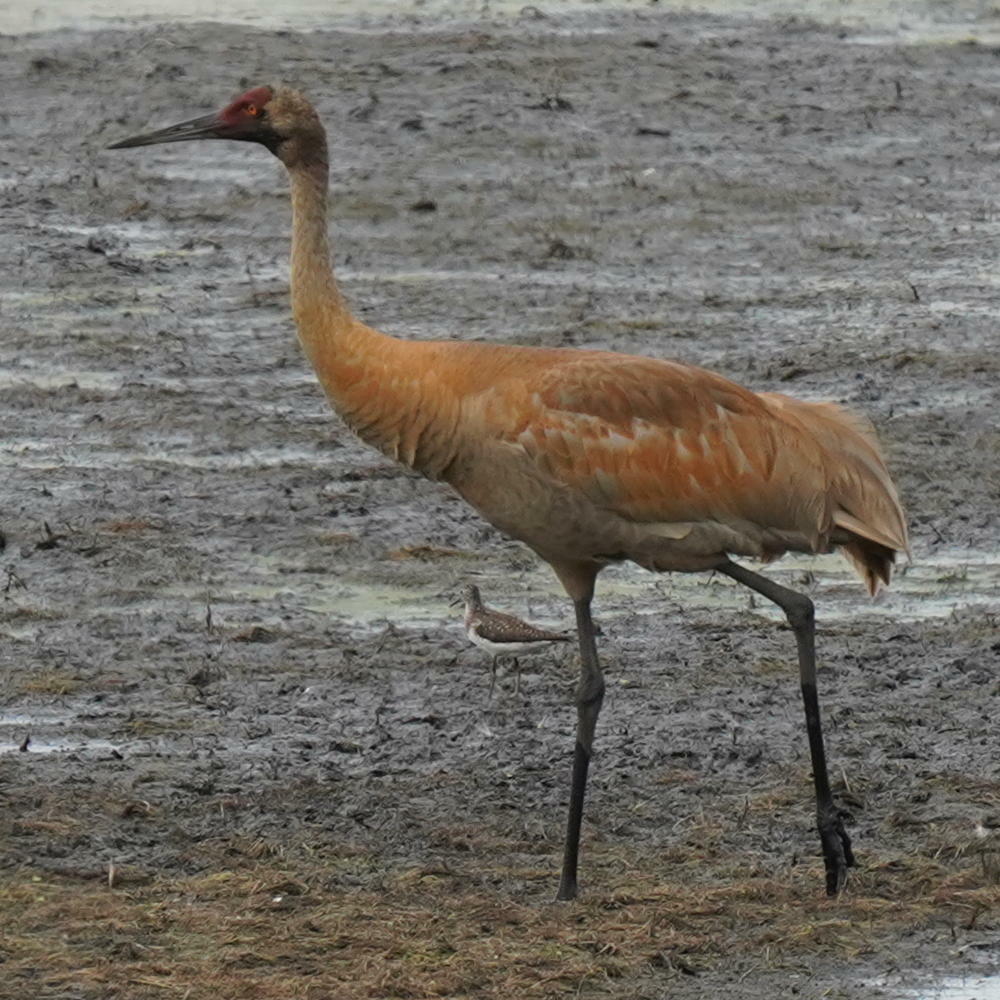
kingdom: Animalia
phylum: Chordata
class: Aves
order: Gruiformes
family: Gruidae
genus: Grus
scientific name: Grus canadensis
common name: Sandhill crane
